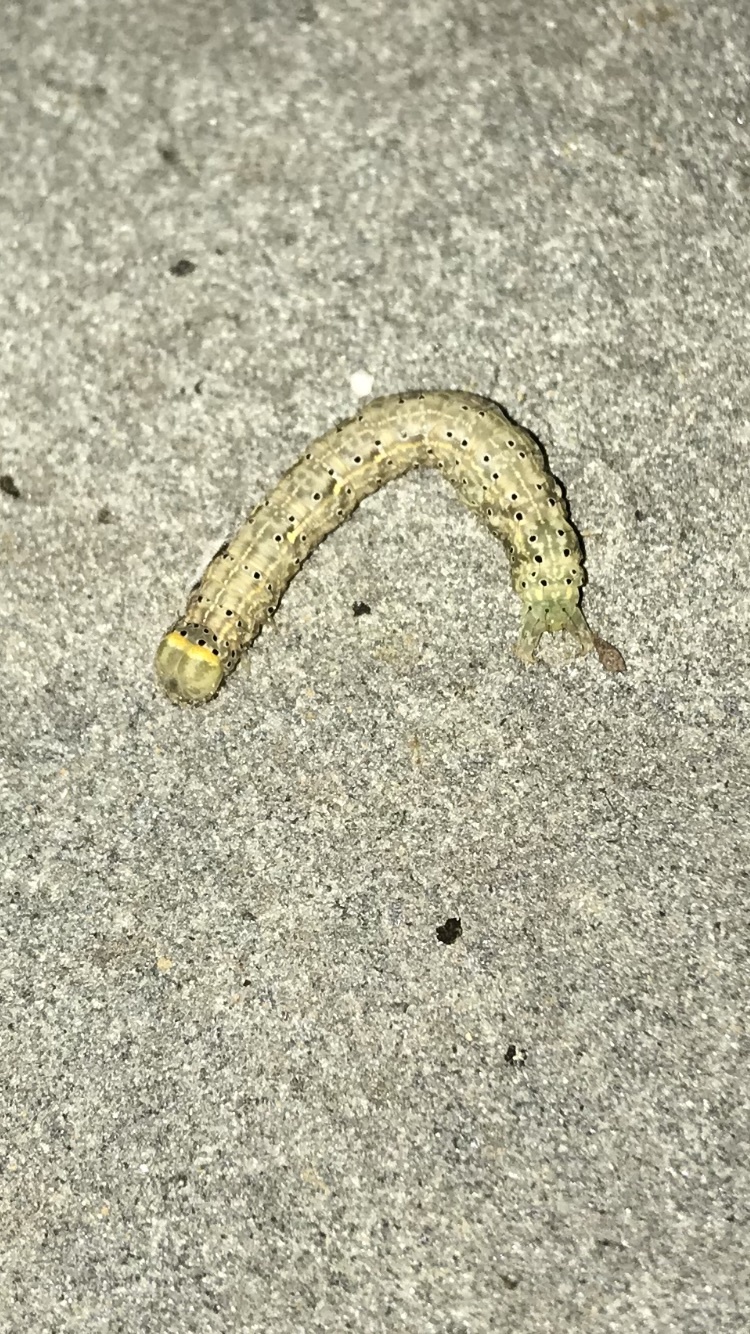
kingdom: Animalia
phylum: Arthropoda
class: Insecta
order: Lepidoptera
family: Erebidae
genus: Rusicada
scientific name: Rusicada privata
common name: Hibiscus leaf caterpillar moth
